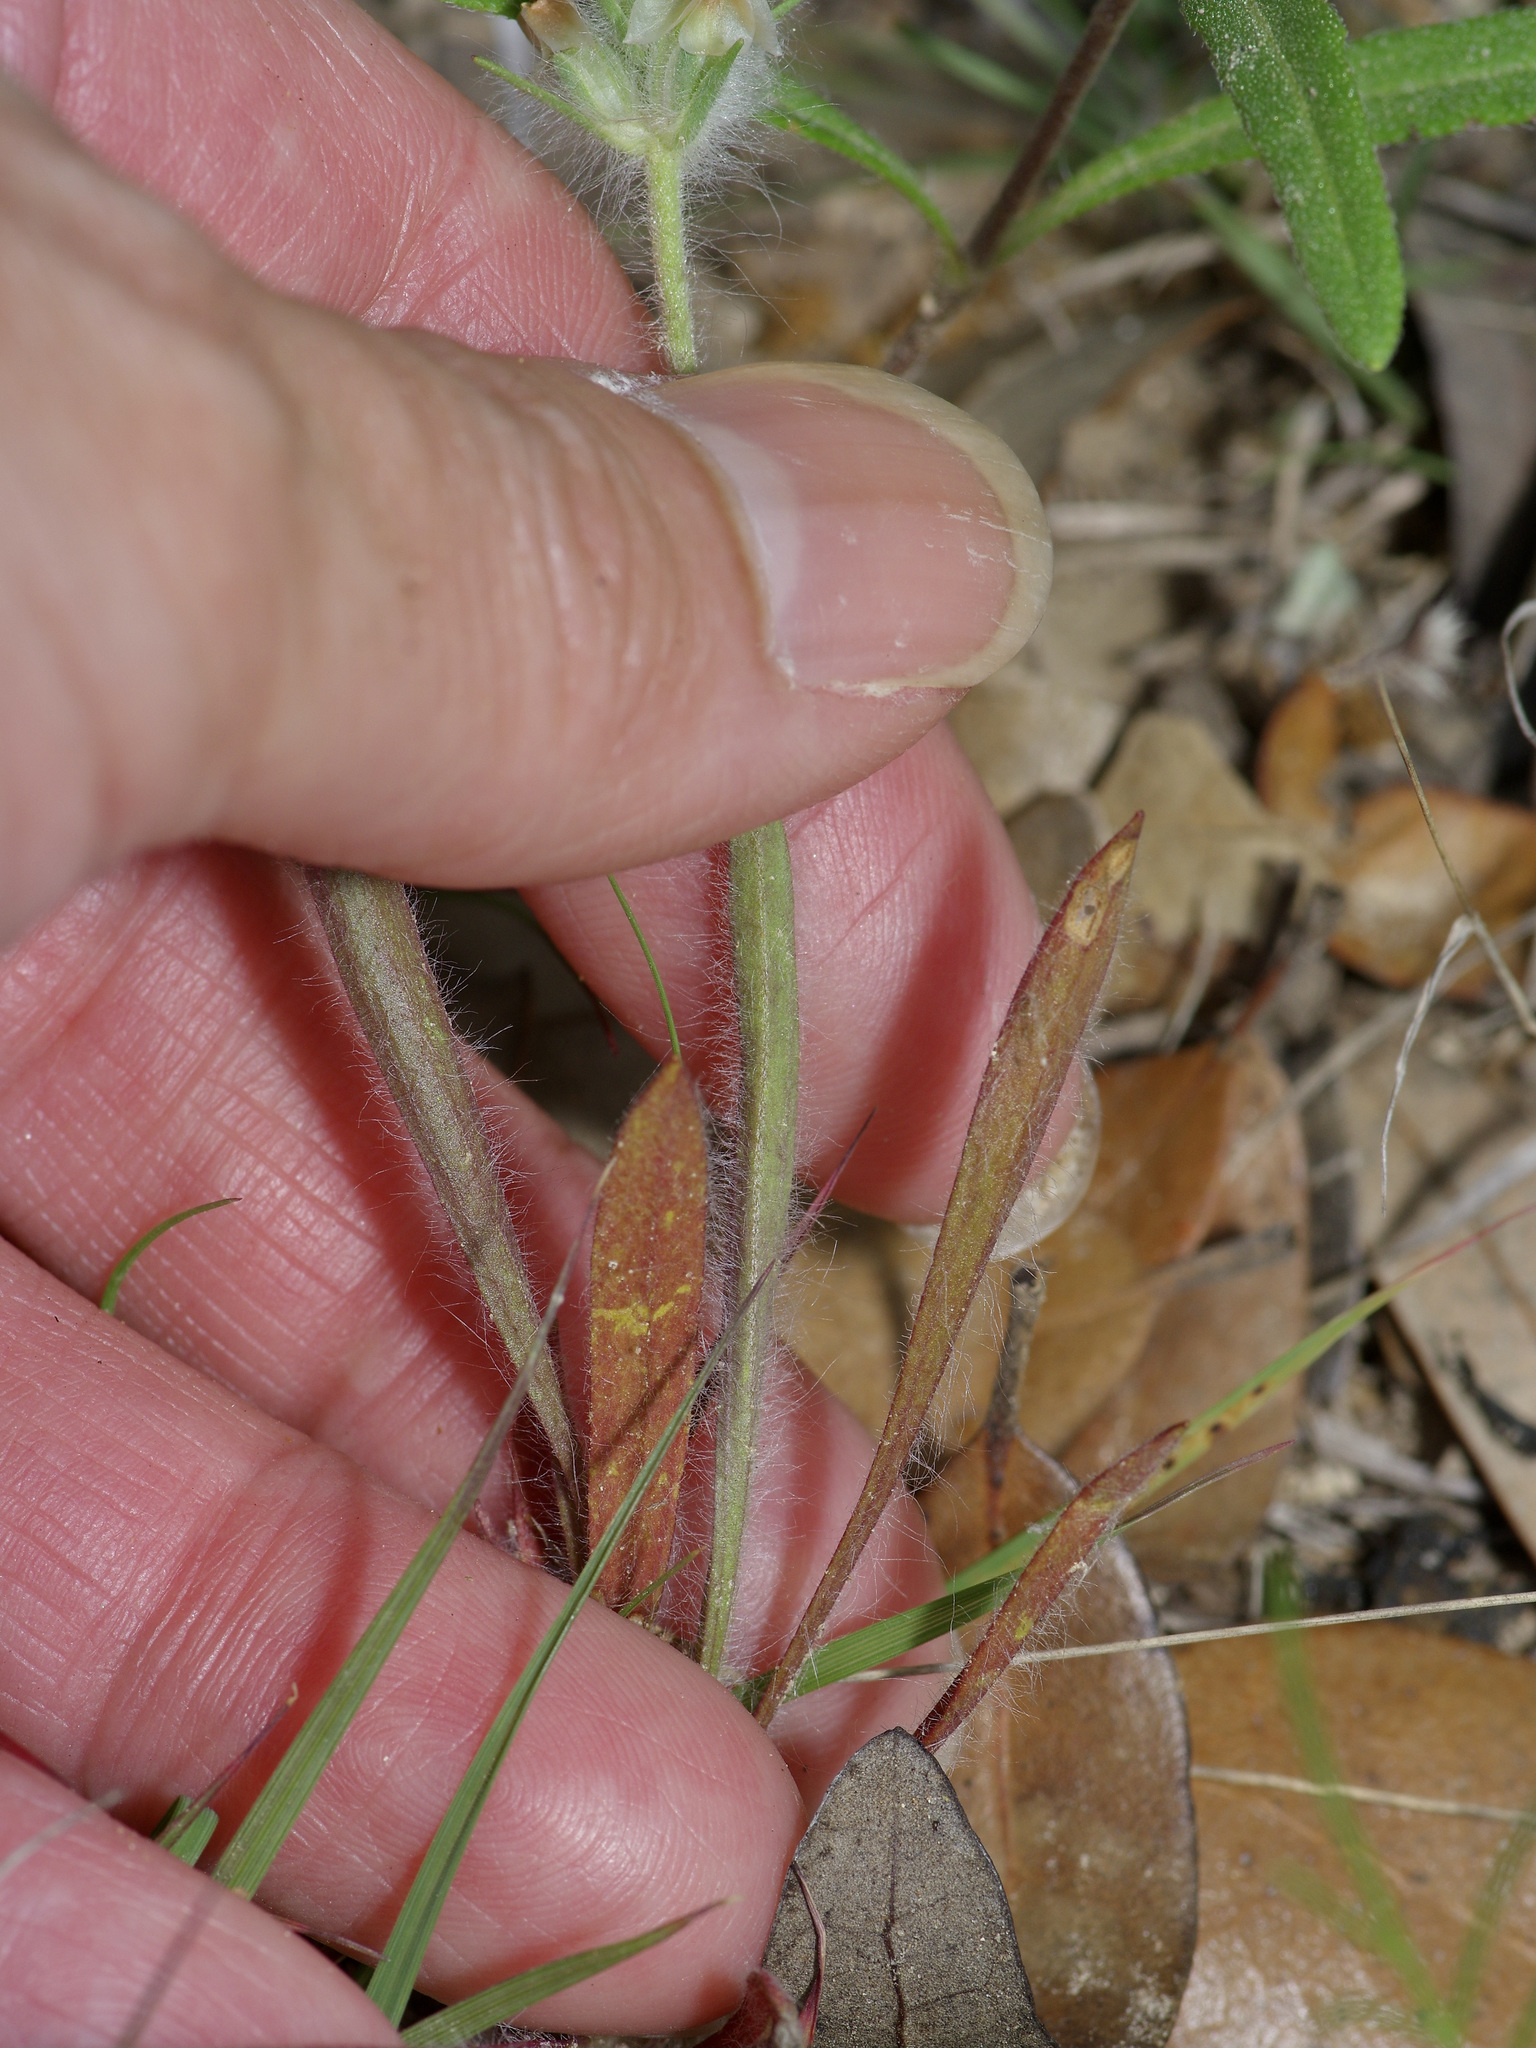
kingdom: Plantae
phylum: Tracheophyta
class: Magnoliopsida
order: Lamiales
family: Plantaginaceae
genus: Plantago
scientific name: Plantago helleri
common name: Heller's plantain
